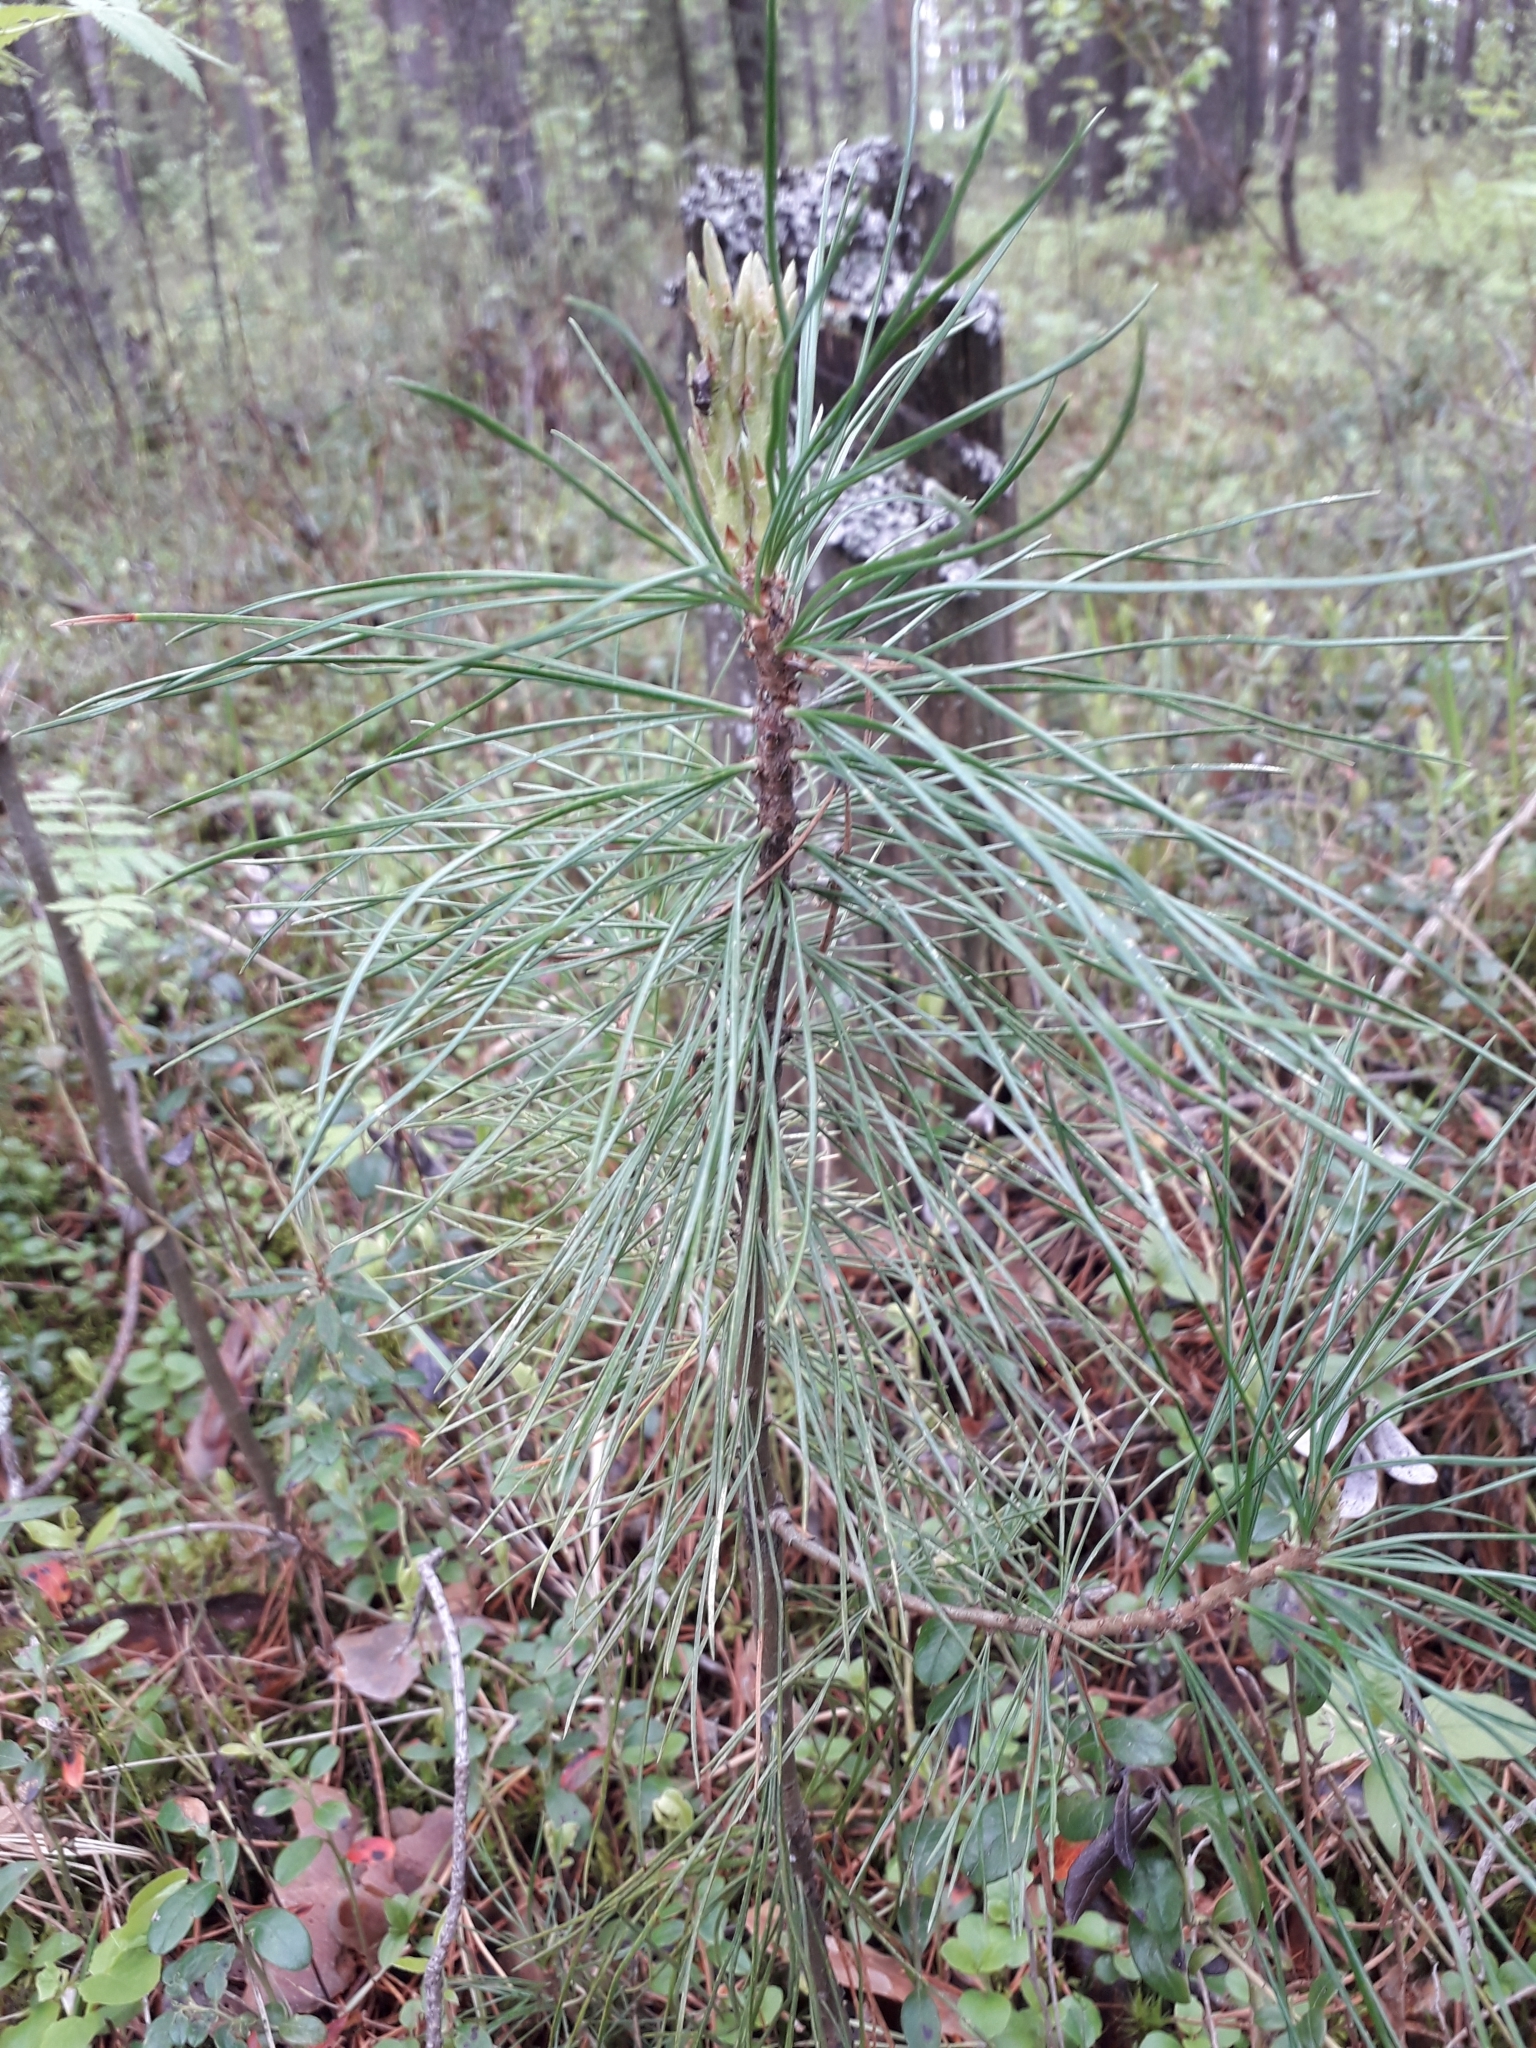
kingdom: Plantae
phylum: Tracheophyta
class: Pinopsida
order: Pinales
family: Pinaceae
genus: Pinus
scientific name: Pinus sibirica
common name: Siberian pine
